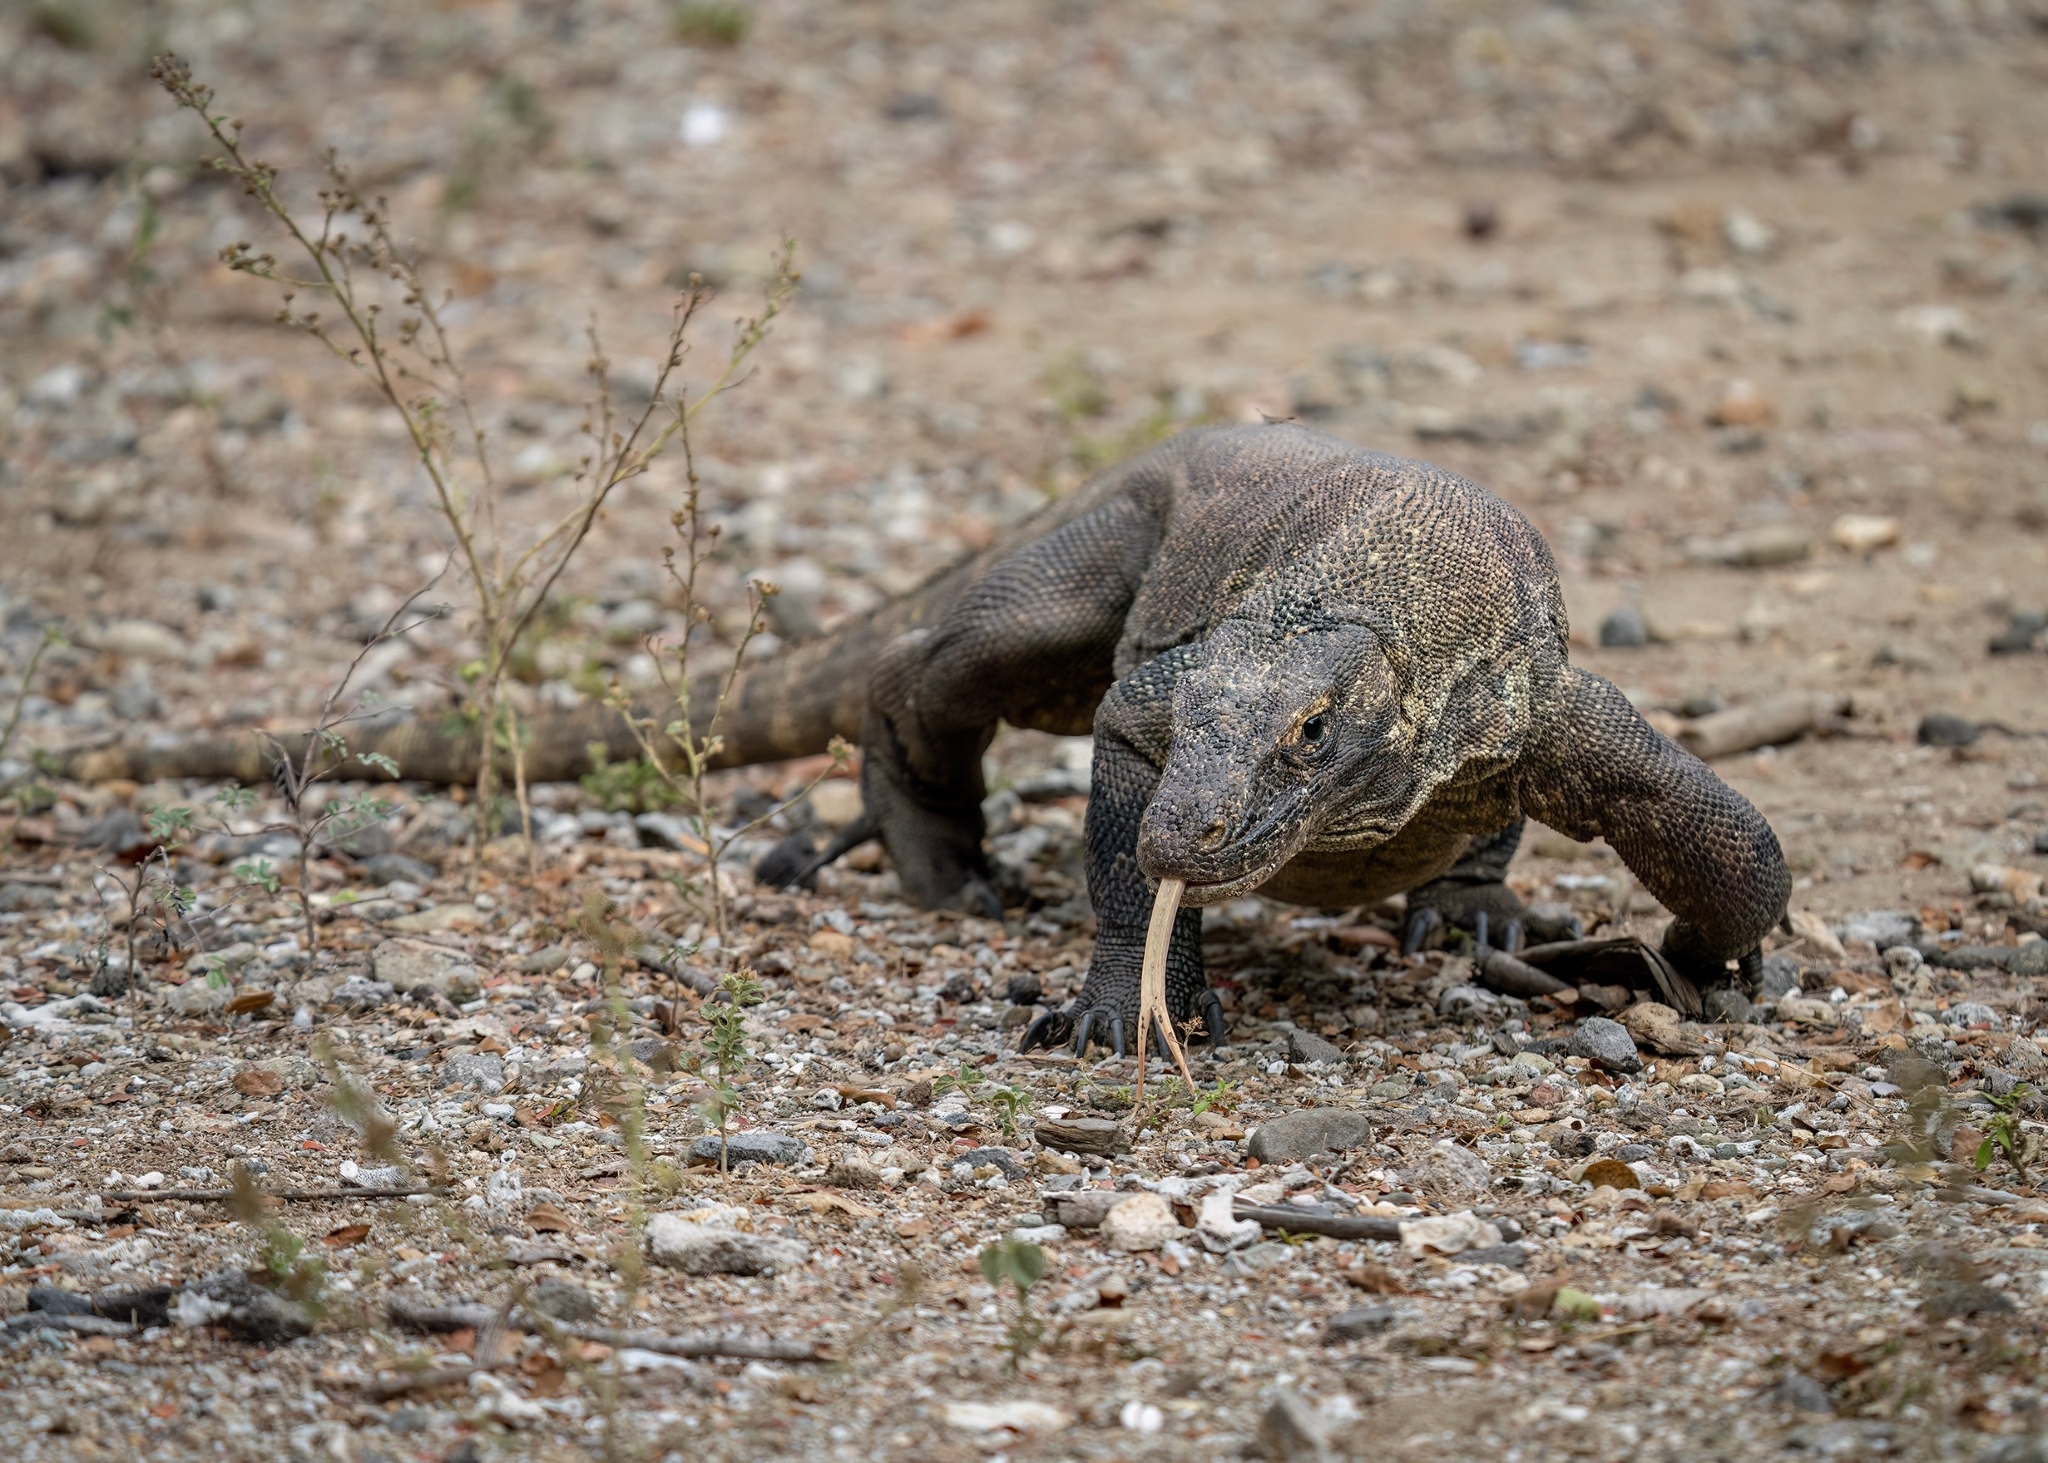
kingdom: Animalia
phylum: Chordata
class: Squamata
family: Varanidae
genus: Varanus
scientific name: Varanus komodoensis
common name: Komodo dragon
